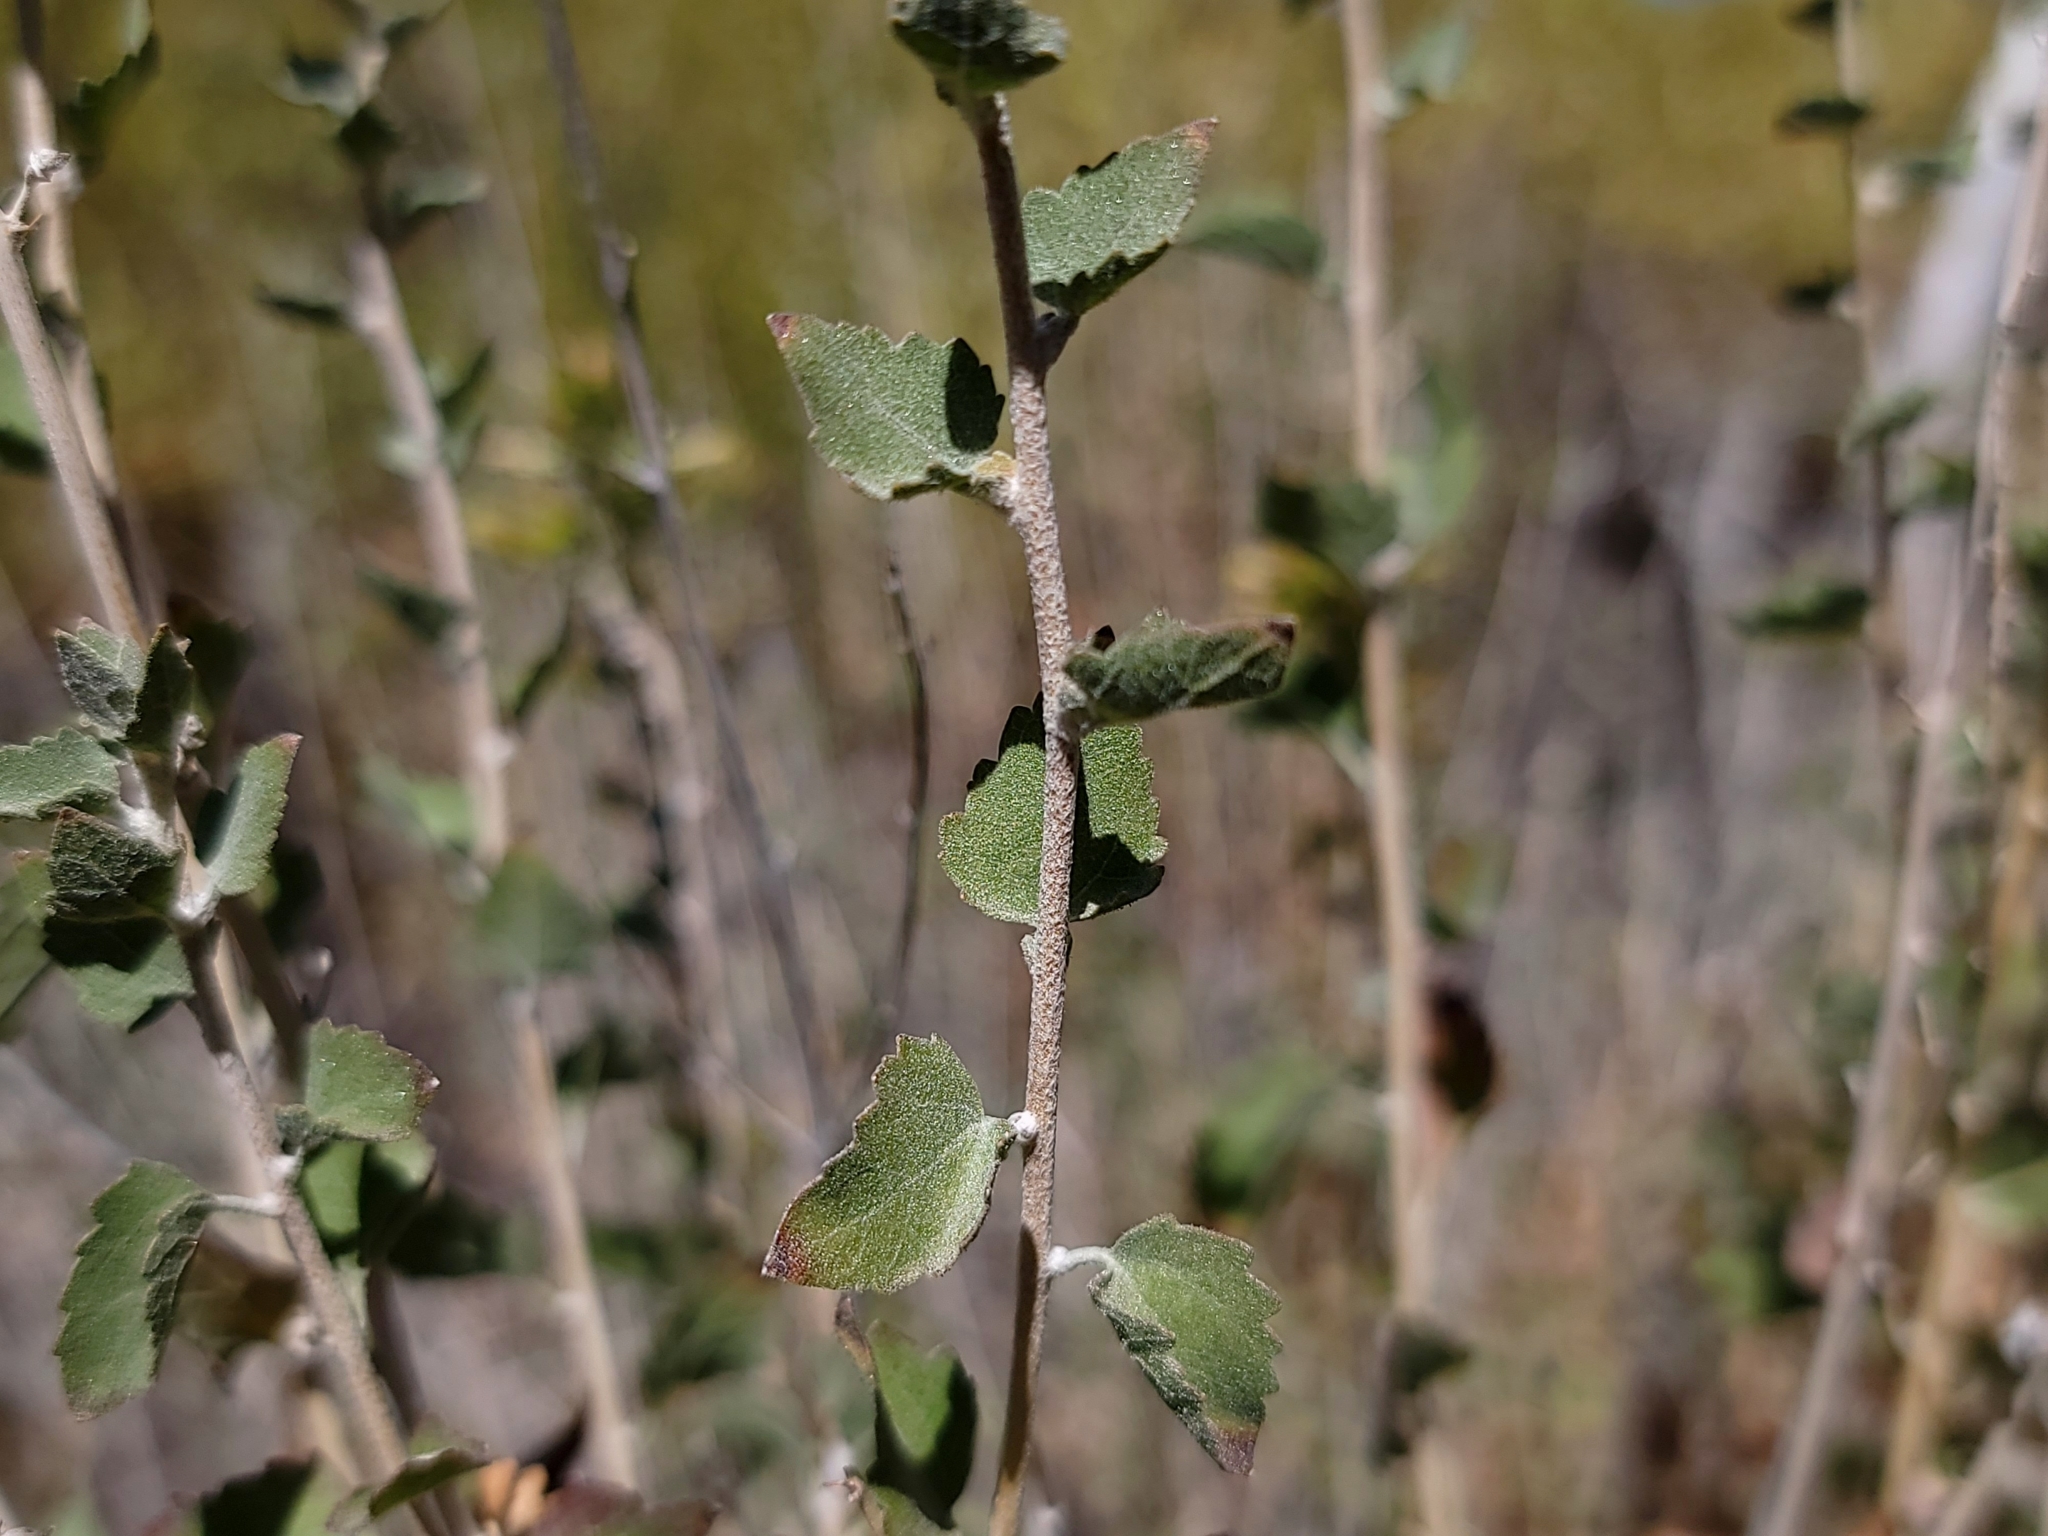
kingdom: Plantae
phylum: Tracheophyta
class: Magnoliopsida
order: Asterales
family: Asteraceae
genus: Brickellia
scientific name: Brickellia californica
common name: California brickellbush
